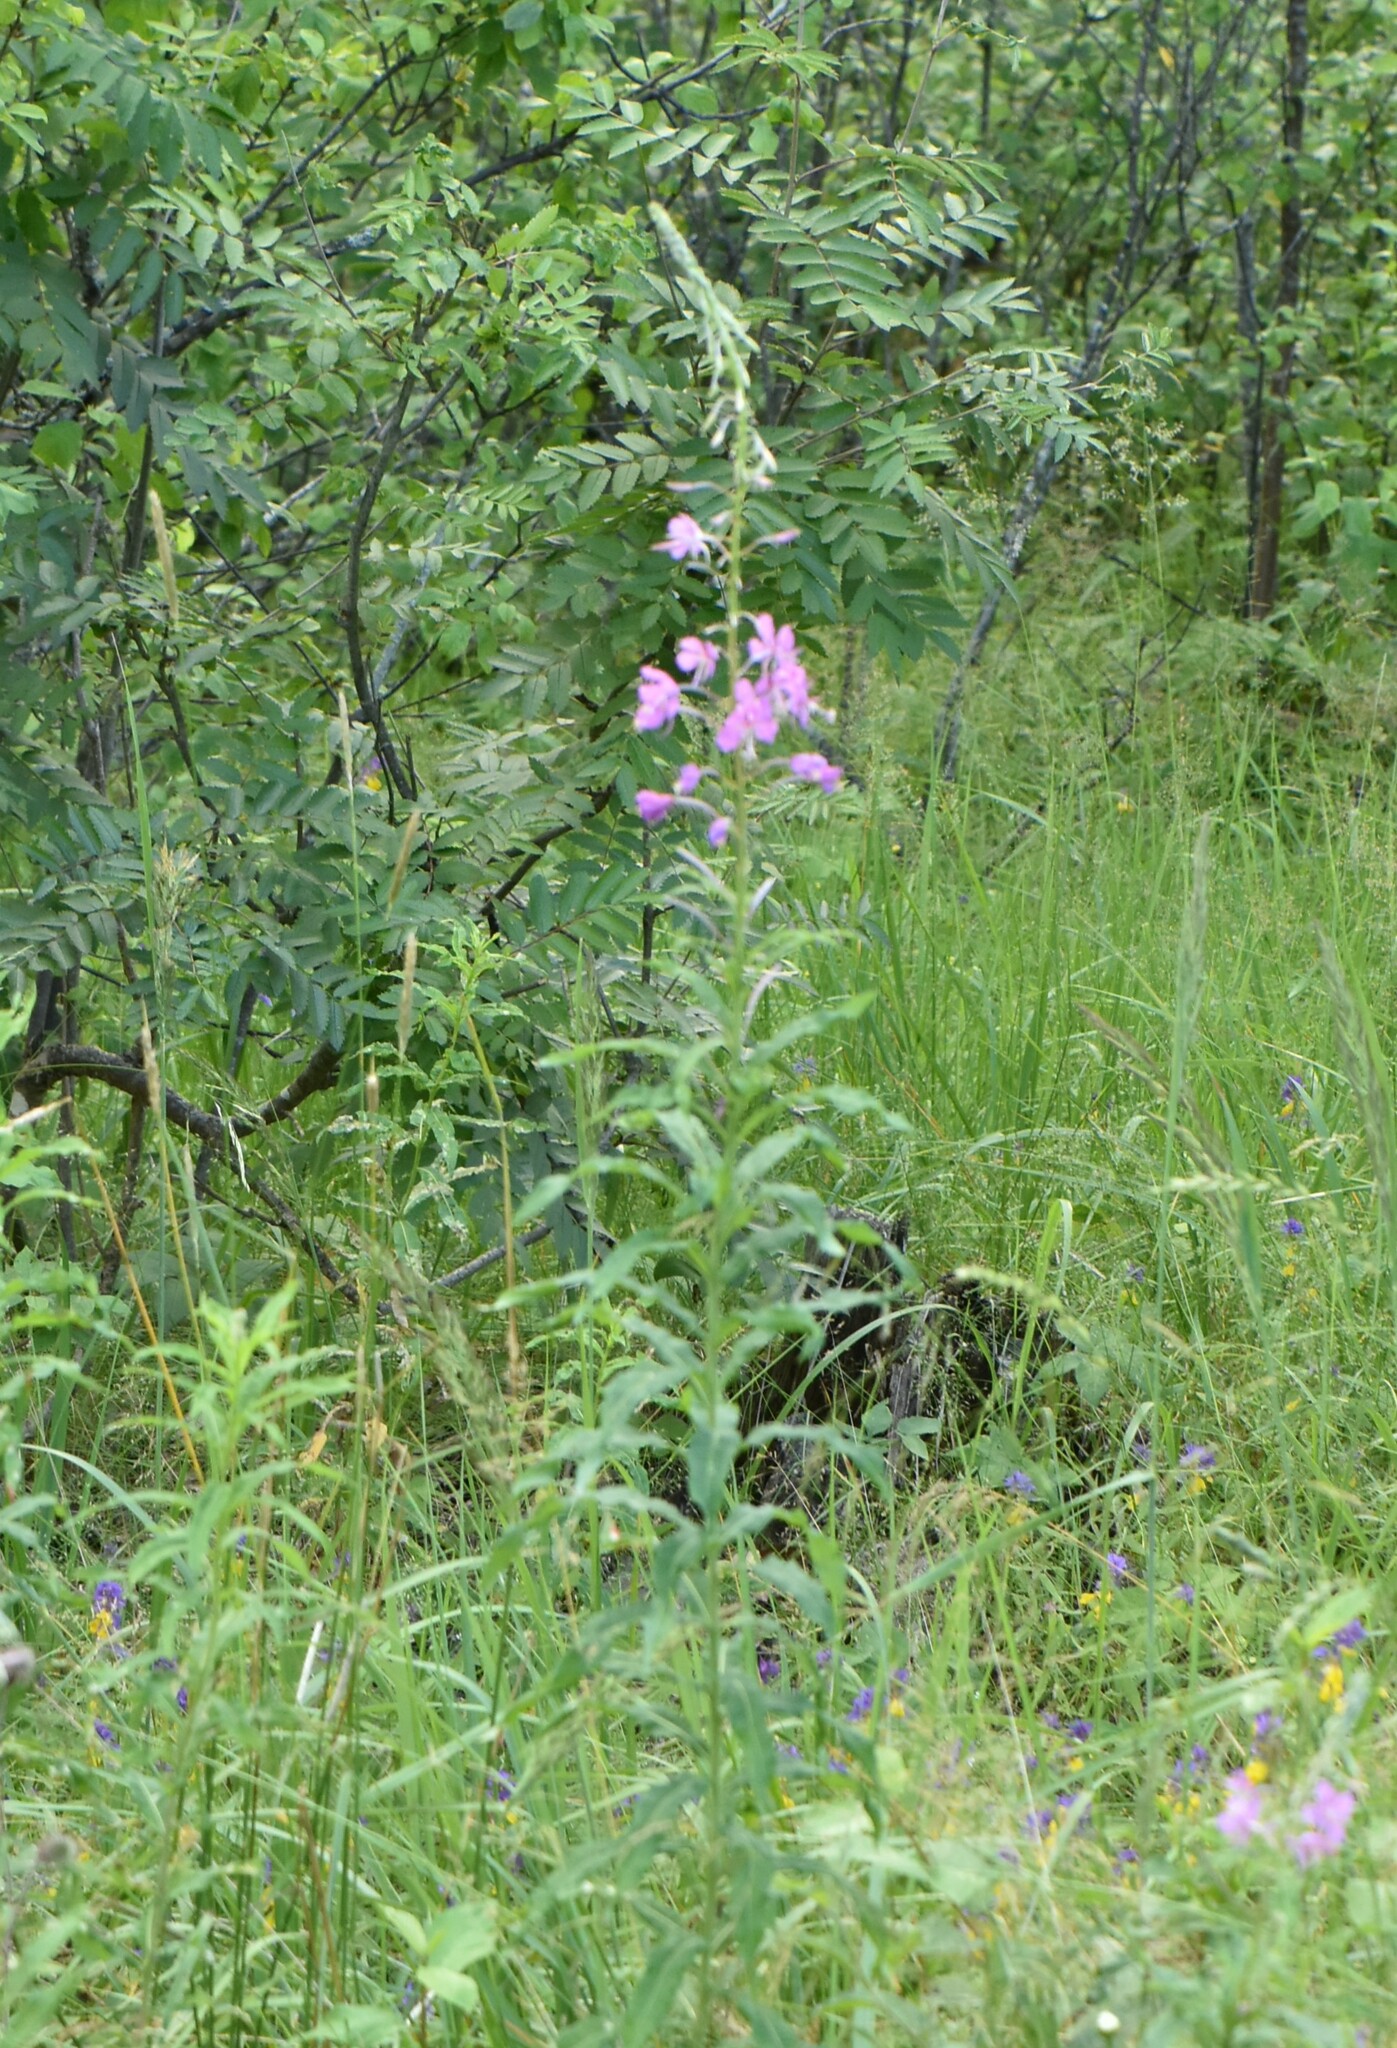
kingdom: Plantae
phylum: Tracheophyta
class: Magnoliopsida
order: Myrtales
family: Onagraceae
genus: Chamaenerion
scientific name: Chamaenerion angustifolium
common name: Fireweed
